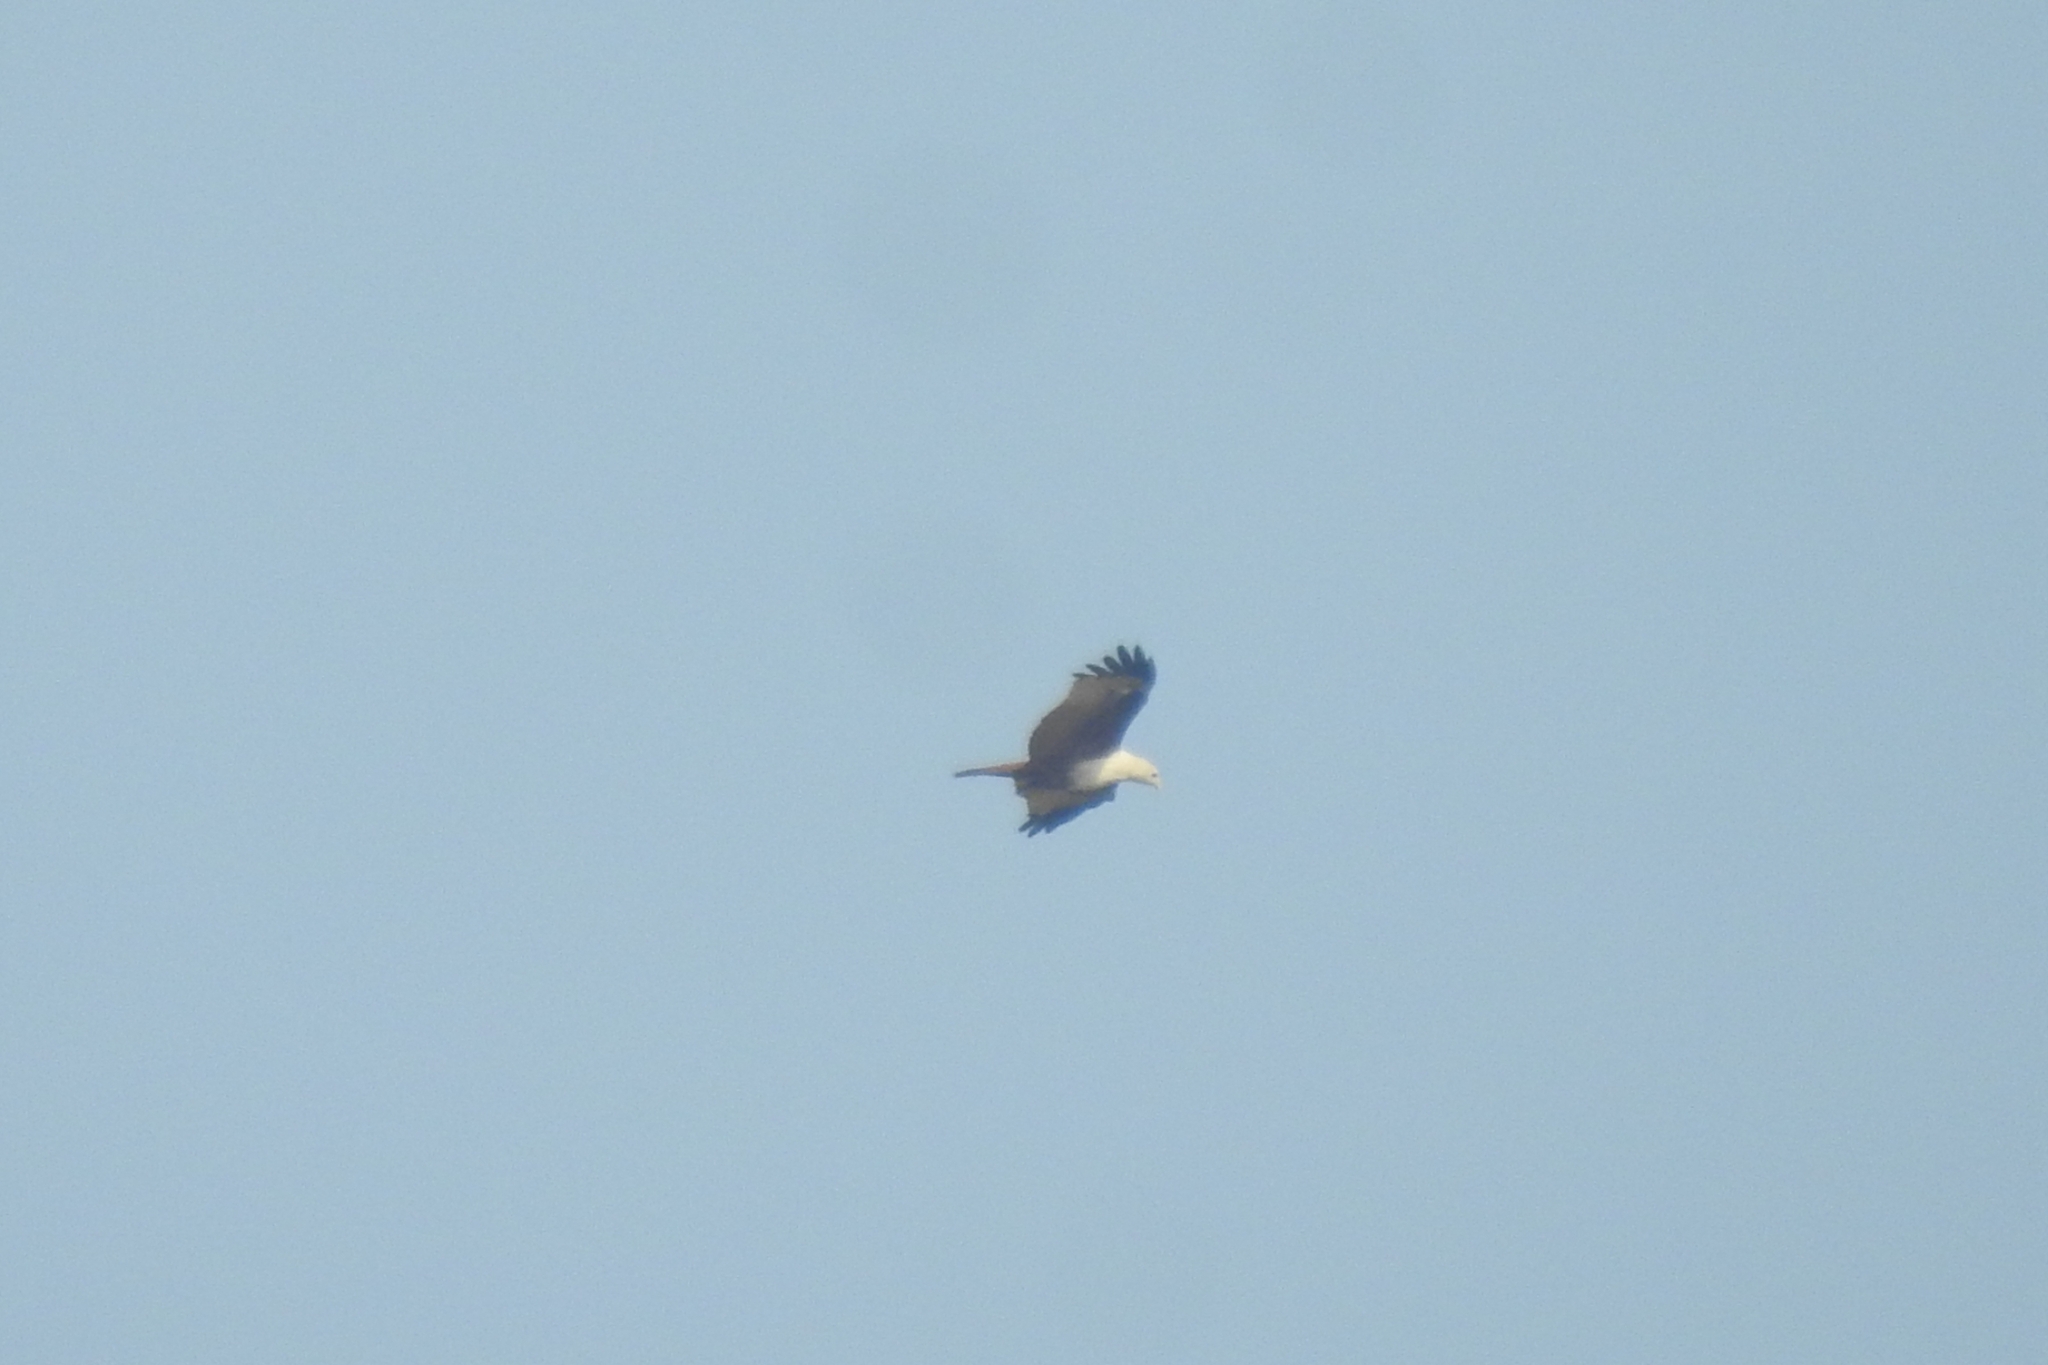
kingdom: Animalia
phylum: Chordata
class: Aves
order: Accipitriformes
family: Accipitridae
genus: Haliastur
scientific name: Haliastur indus
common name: Brahminy kite
